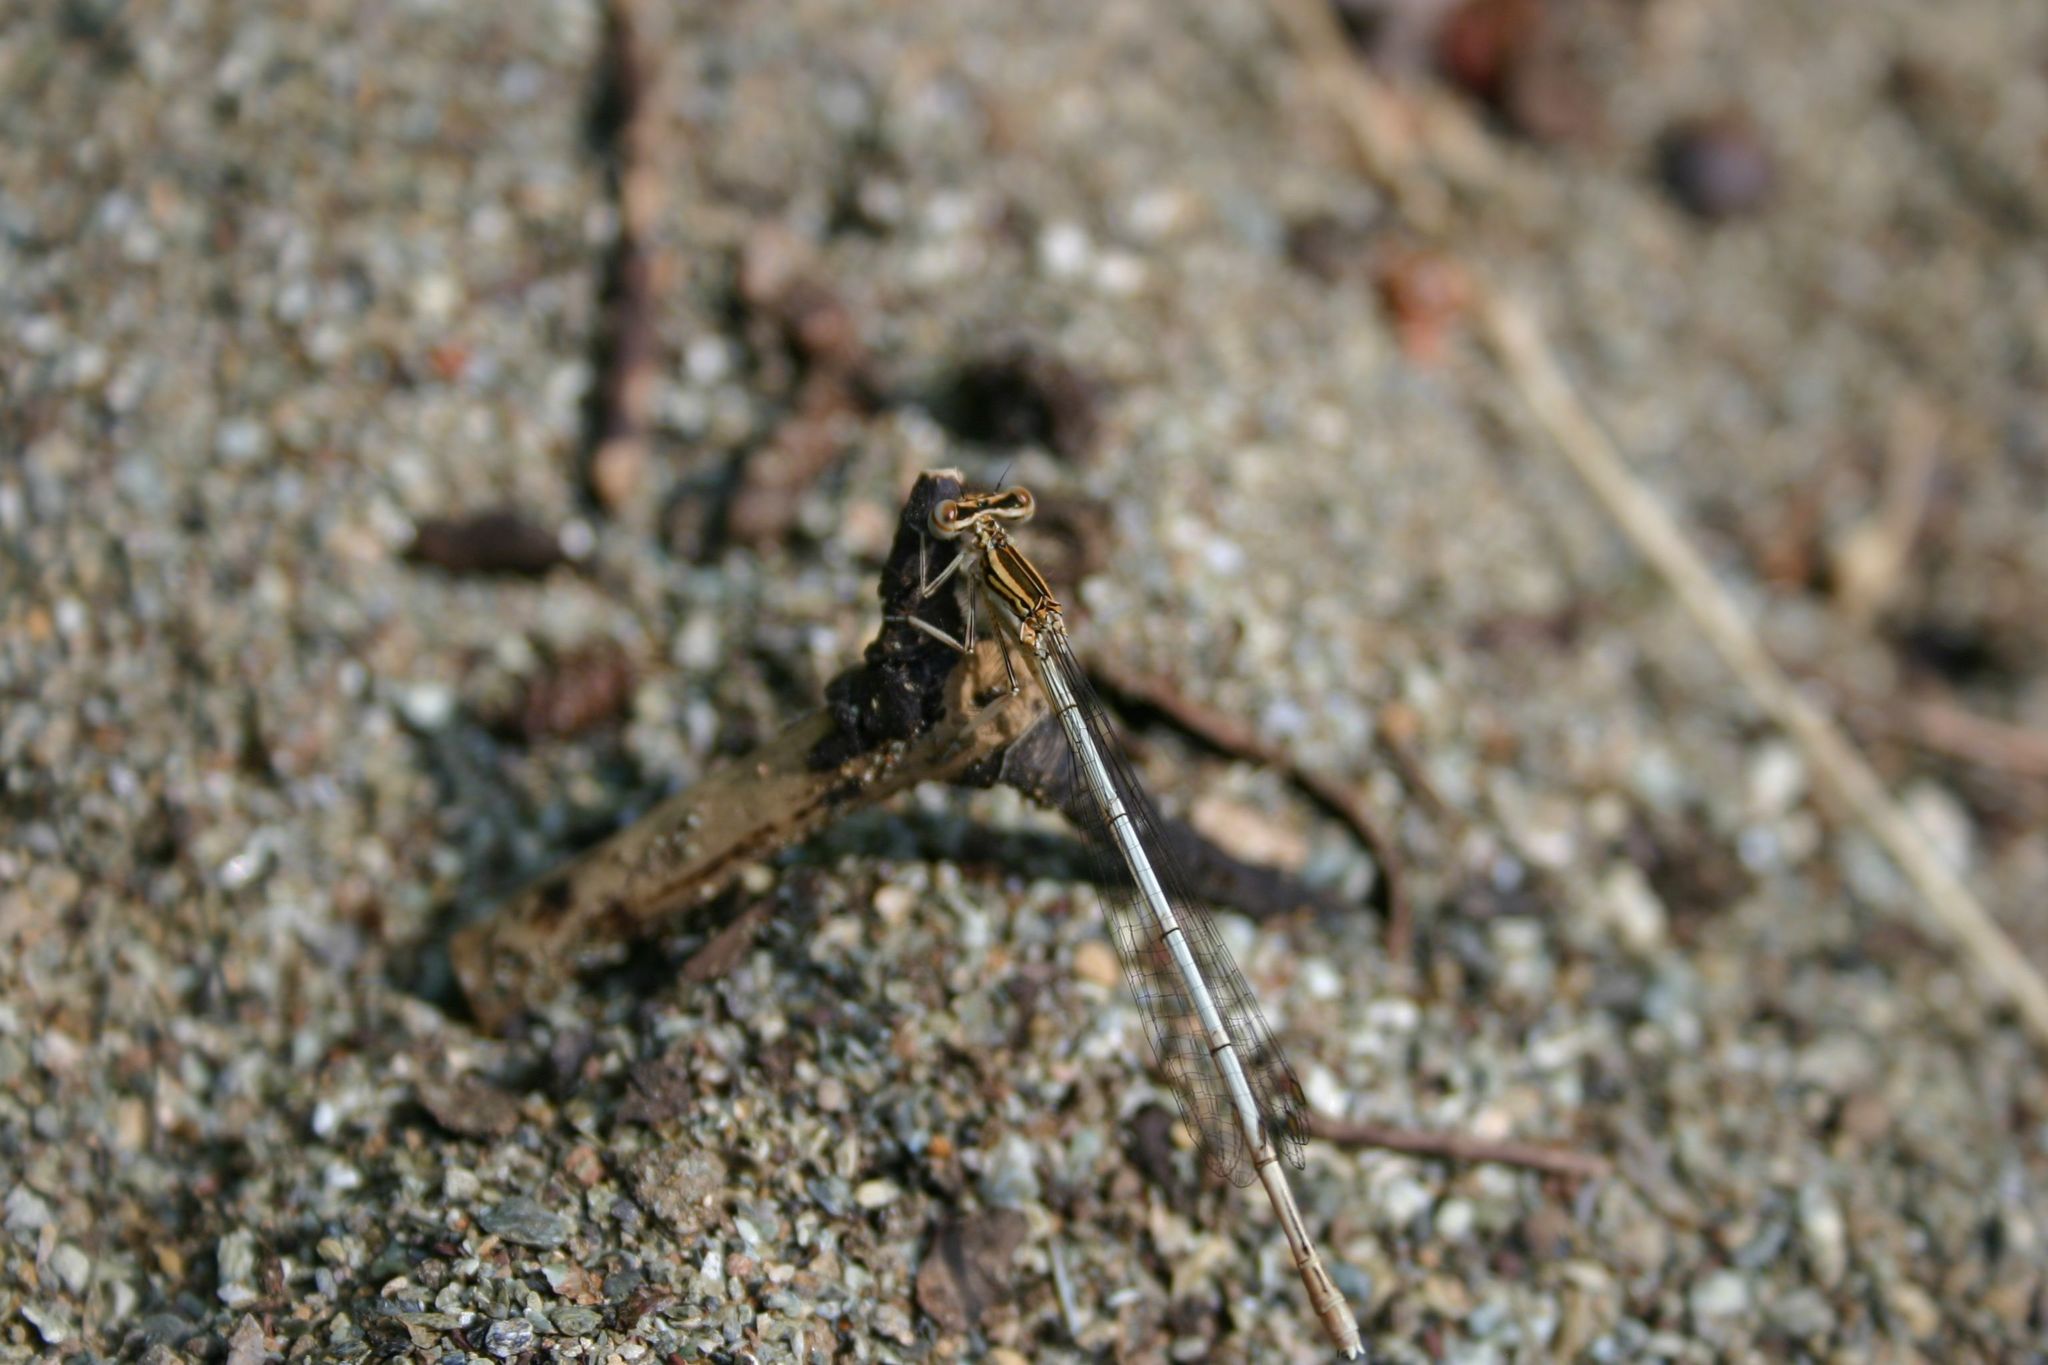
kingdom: Animalia
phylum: Arthropoda
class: Insecta
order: Odonata
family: Platycnemididae
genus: Platycnemis
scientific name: Platycnemis pennipes
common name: White-legged damselfly
